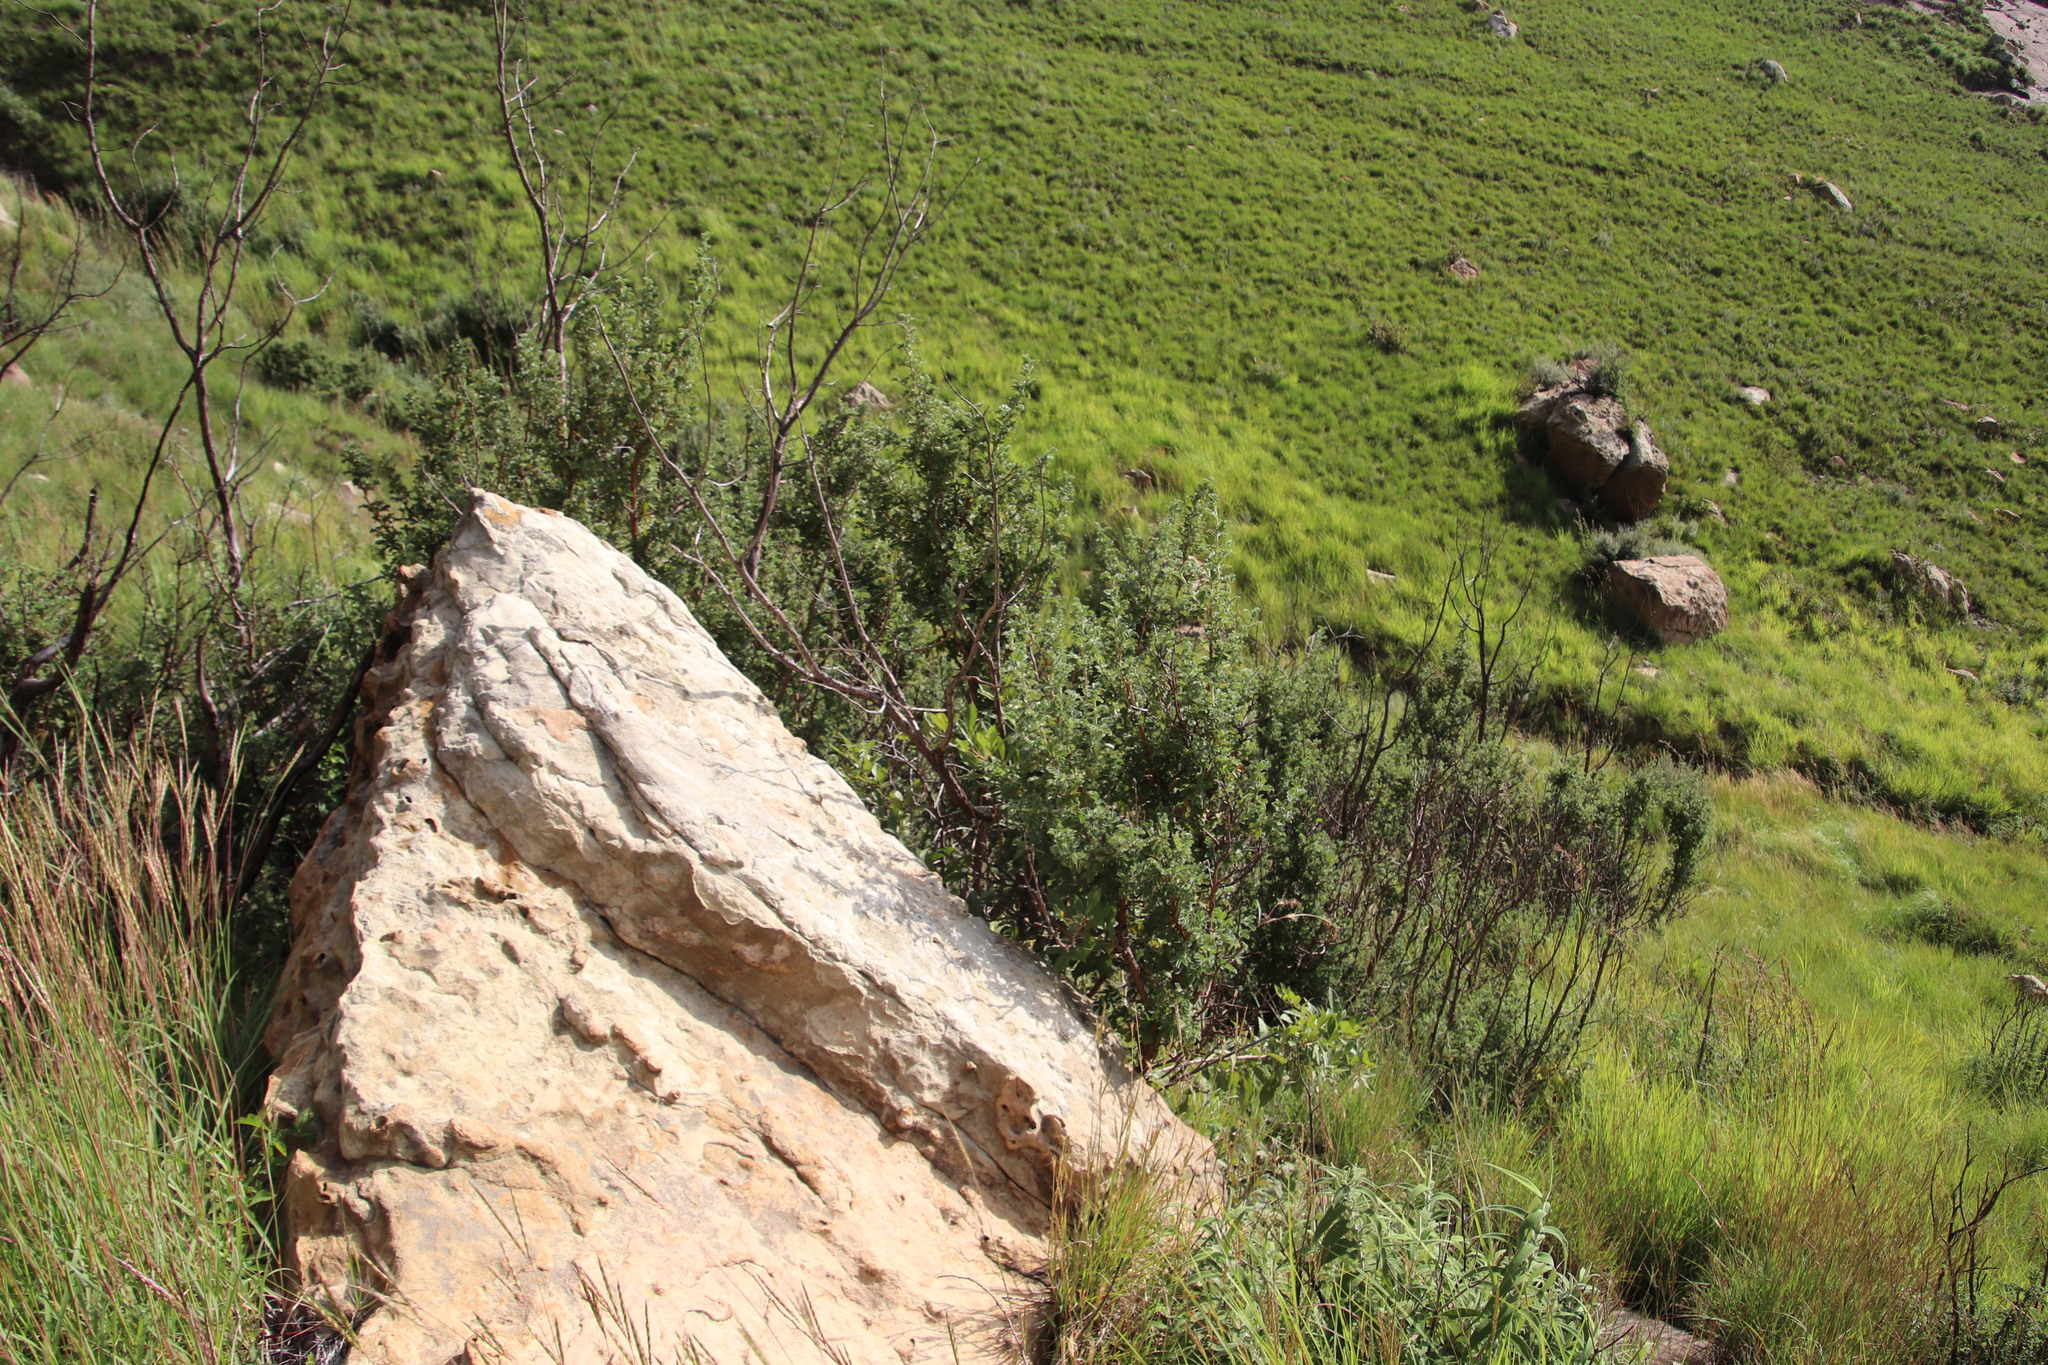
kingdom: Plantae
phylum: Tracheophyta
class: Magnoliopsida
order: Rosales
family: Rosaceae
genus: Leucosidea
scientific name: Leucosidea sericea
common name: Oldwood
